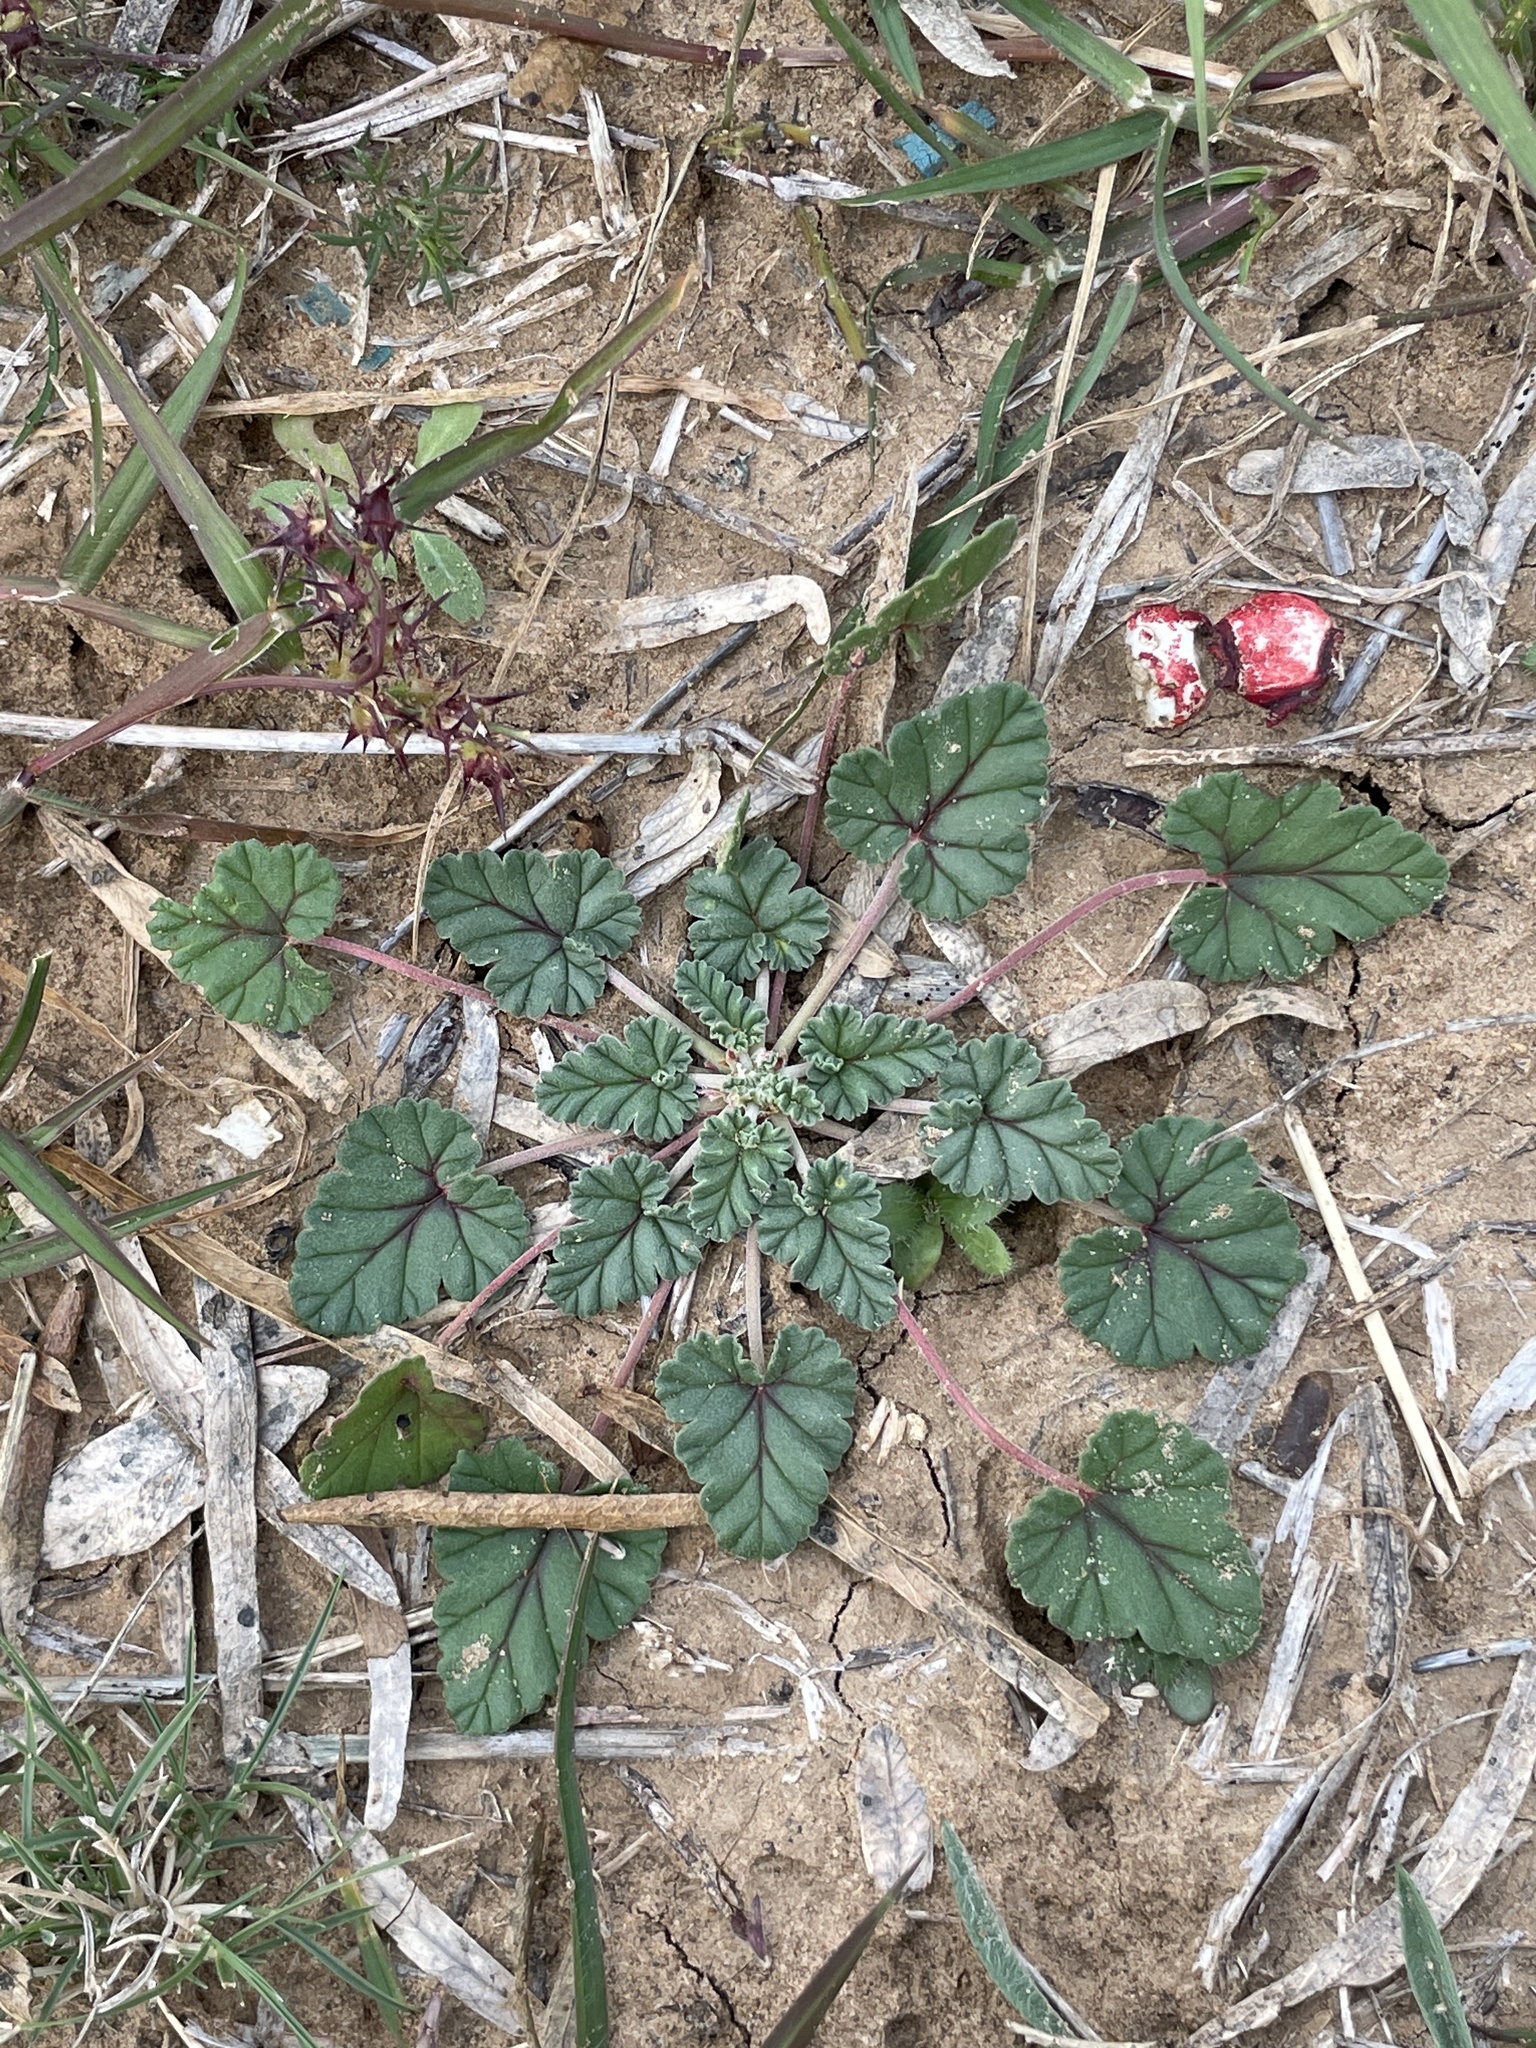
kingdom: Plantae
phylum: Tracheophyta
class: Magnoliopsida
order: Geraniales
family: Geraniaceae
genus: Erodium
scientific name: Erodium texanum
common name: Texas stork's-bill
